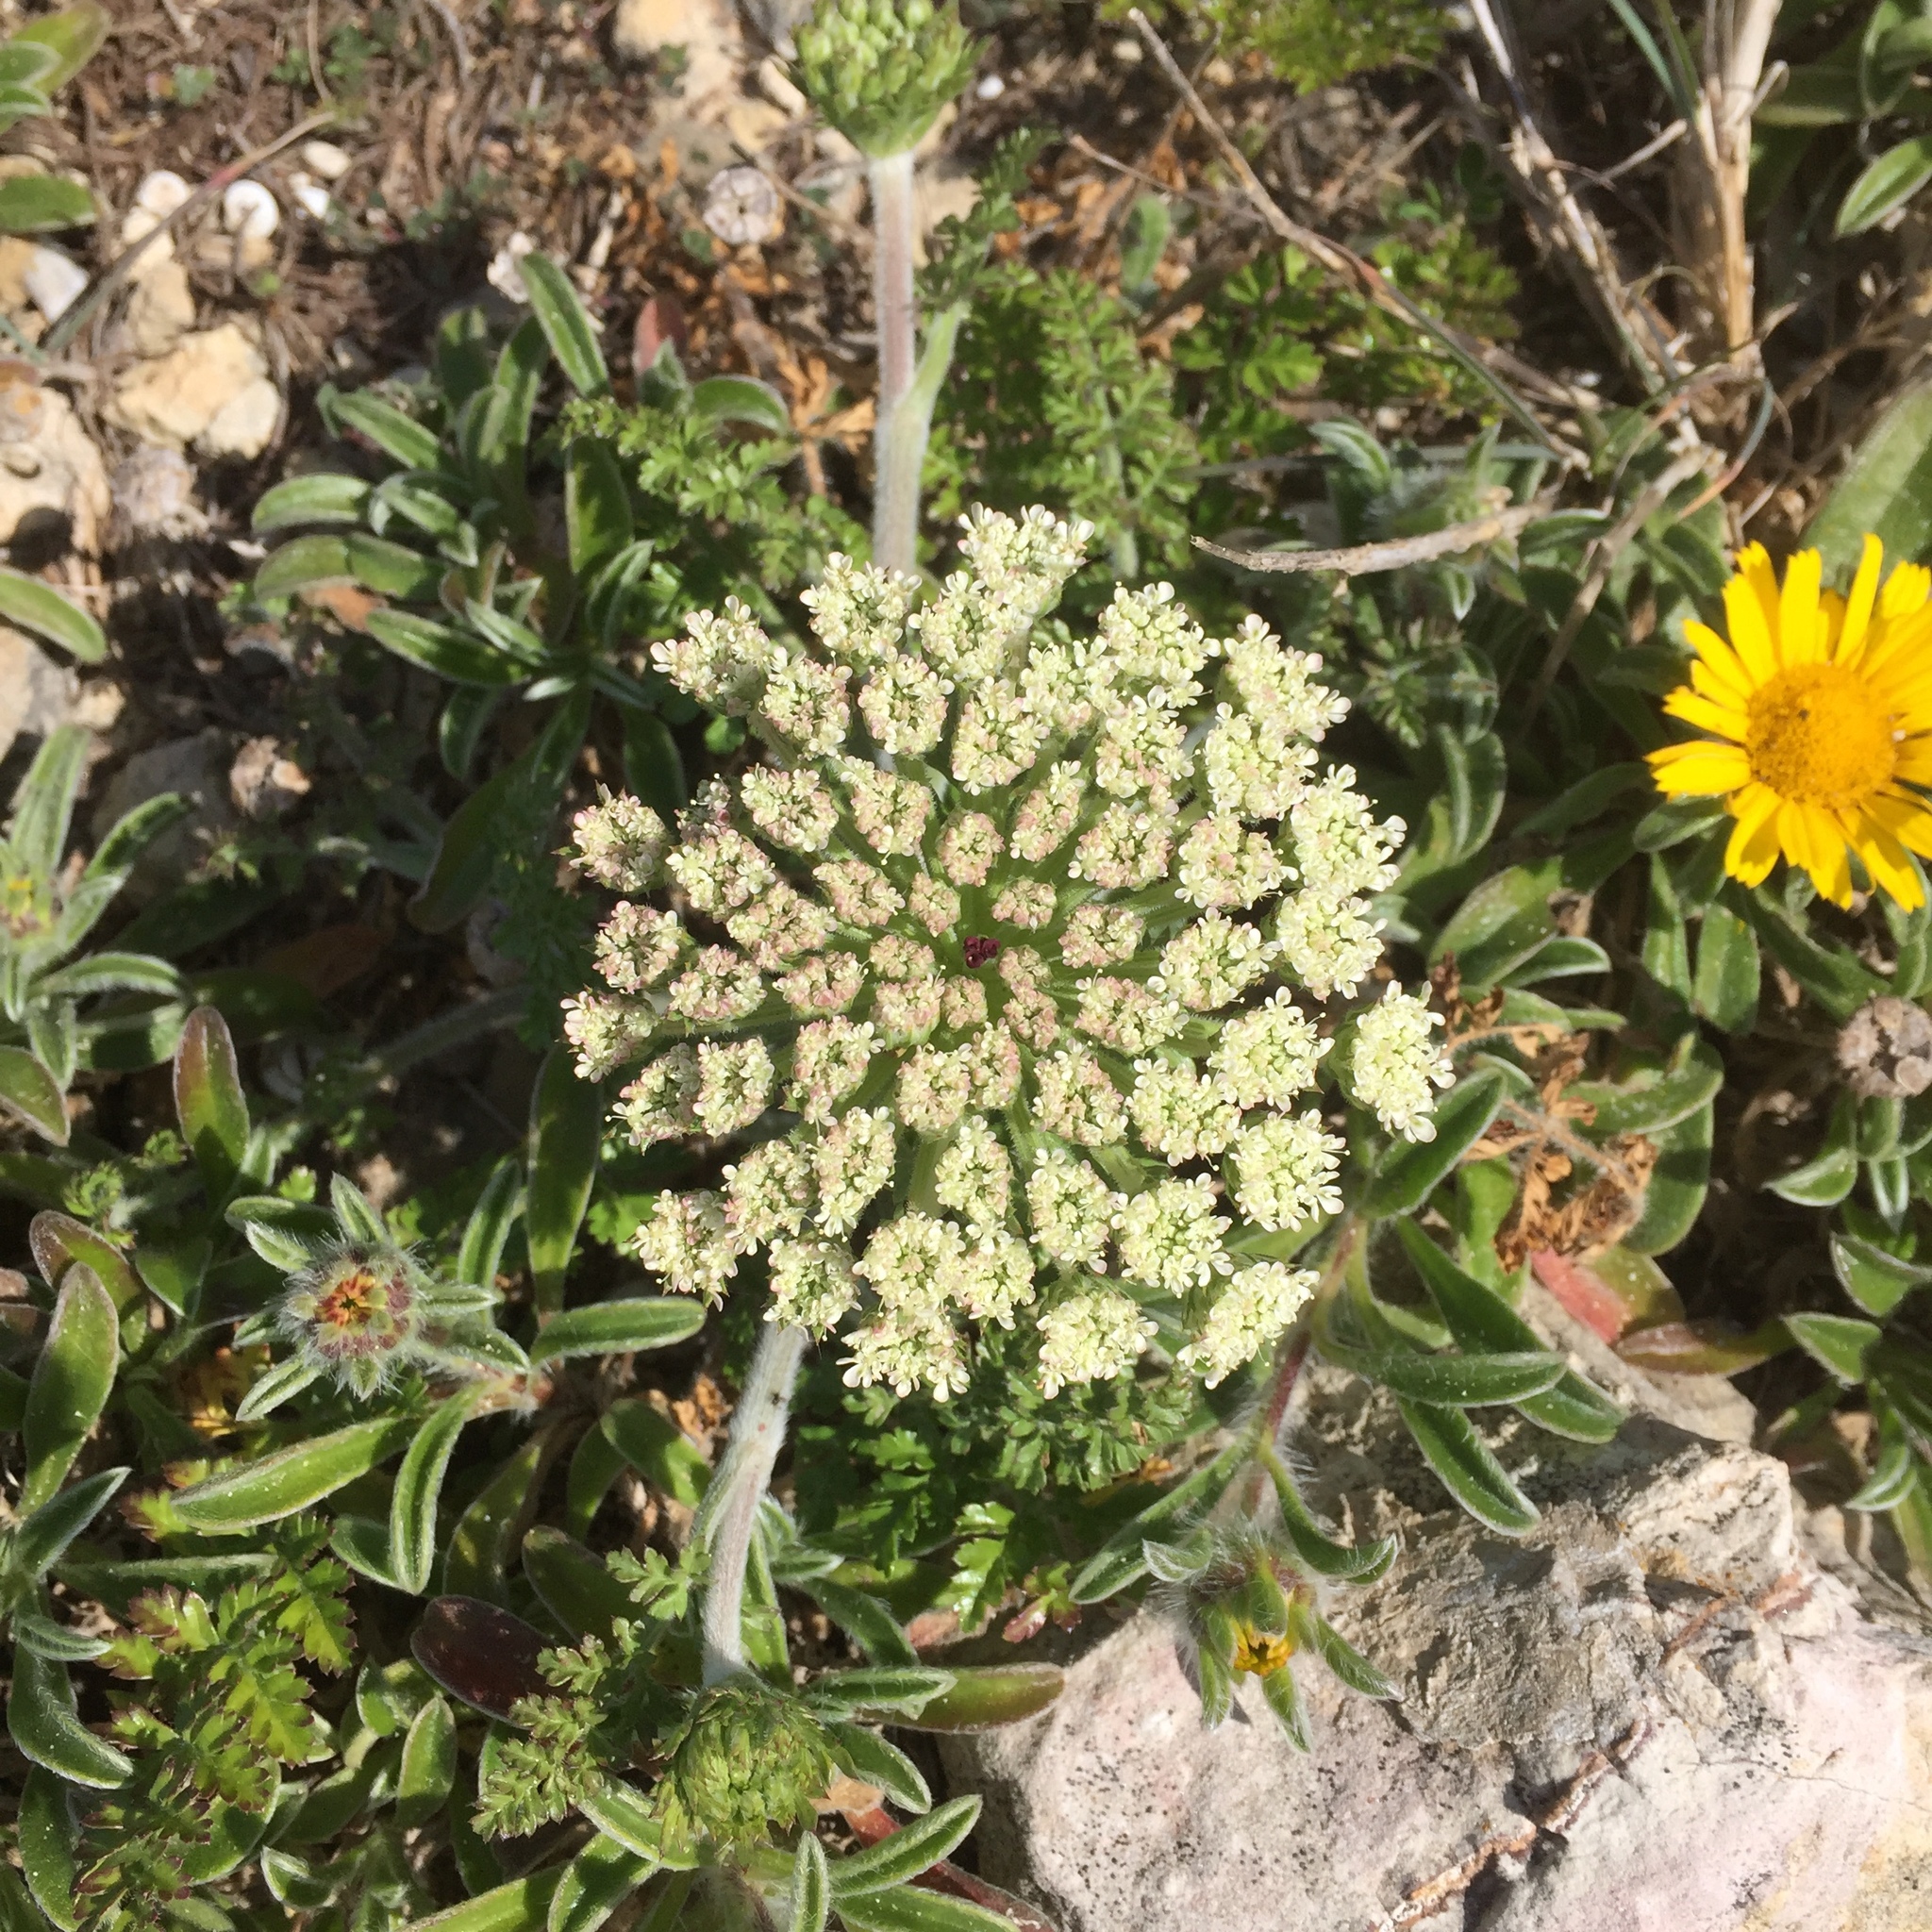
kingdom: Plantae
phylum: Tracheophyta
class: Magnoliopsida
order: Apiales
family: Apiaceae
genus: Daucus
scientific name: Daucus carota
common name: Wild carrot
